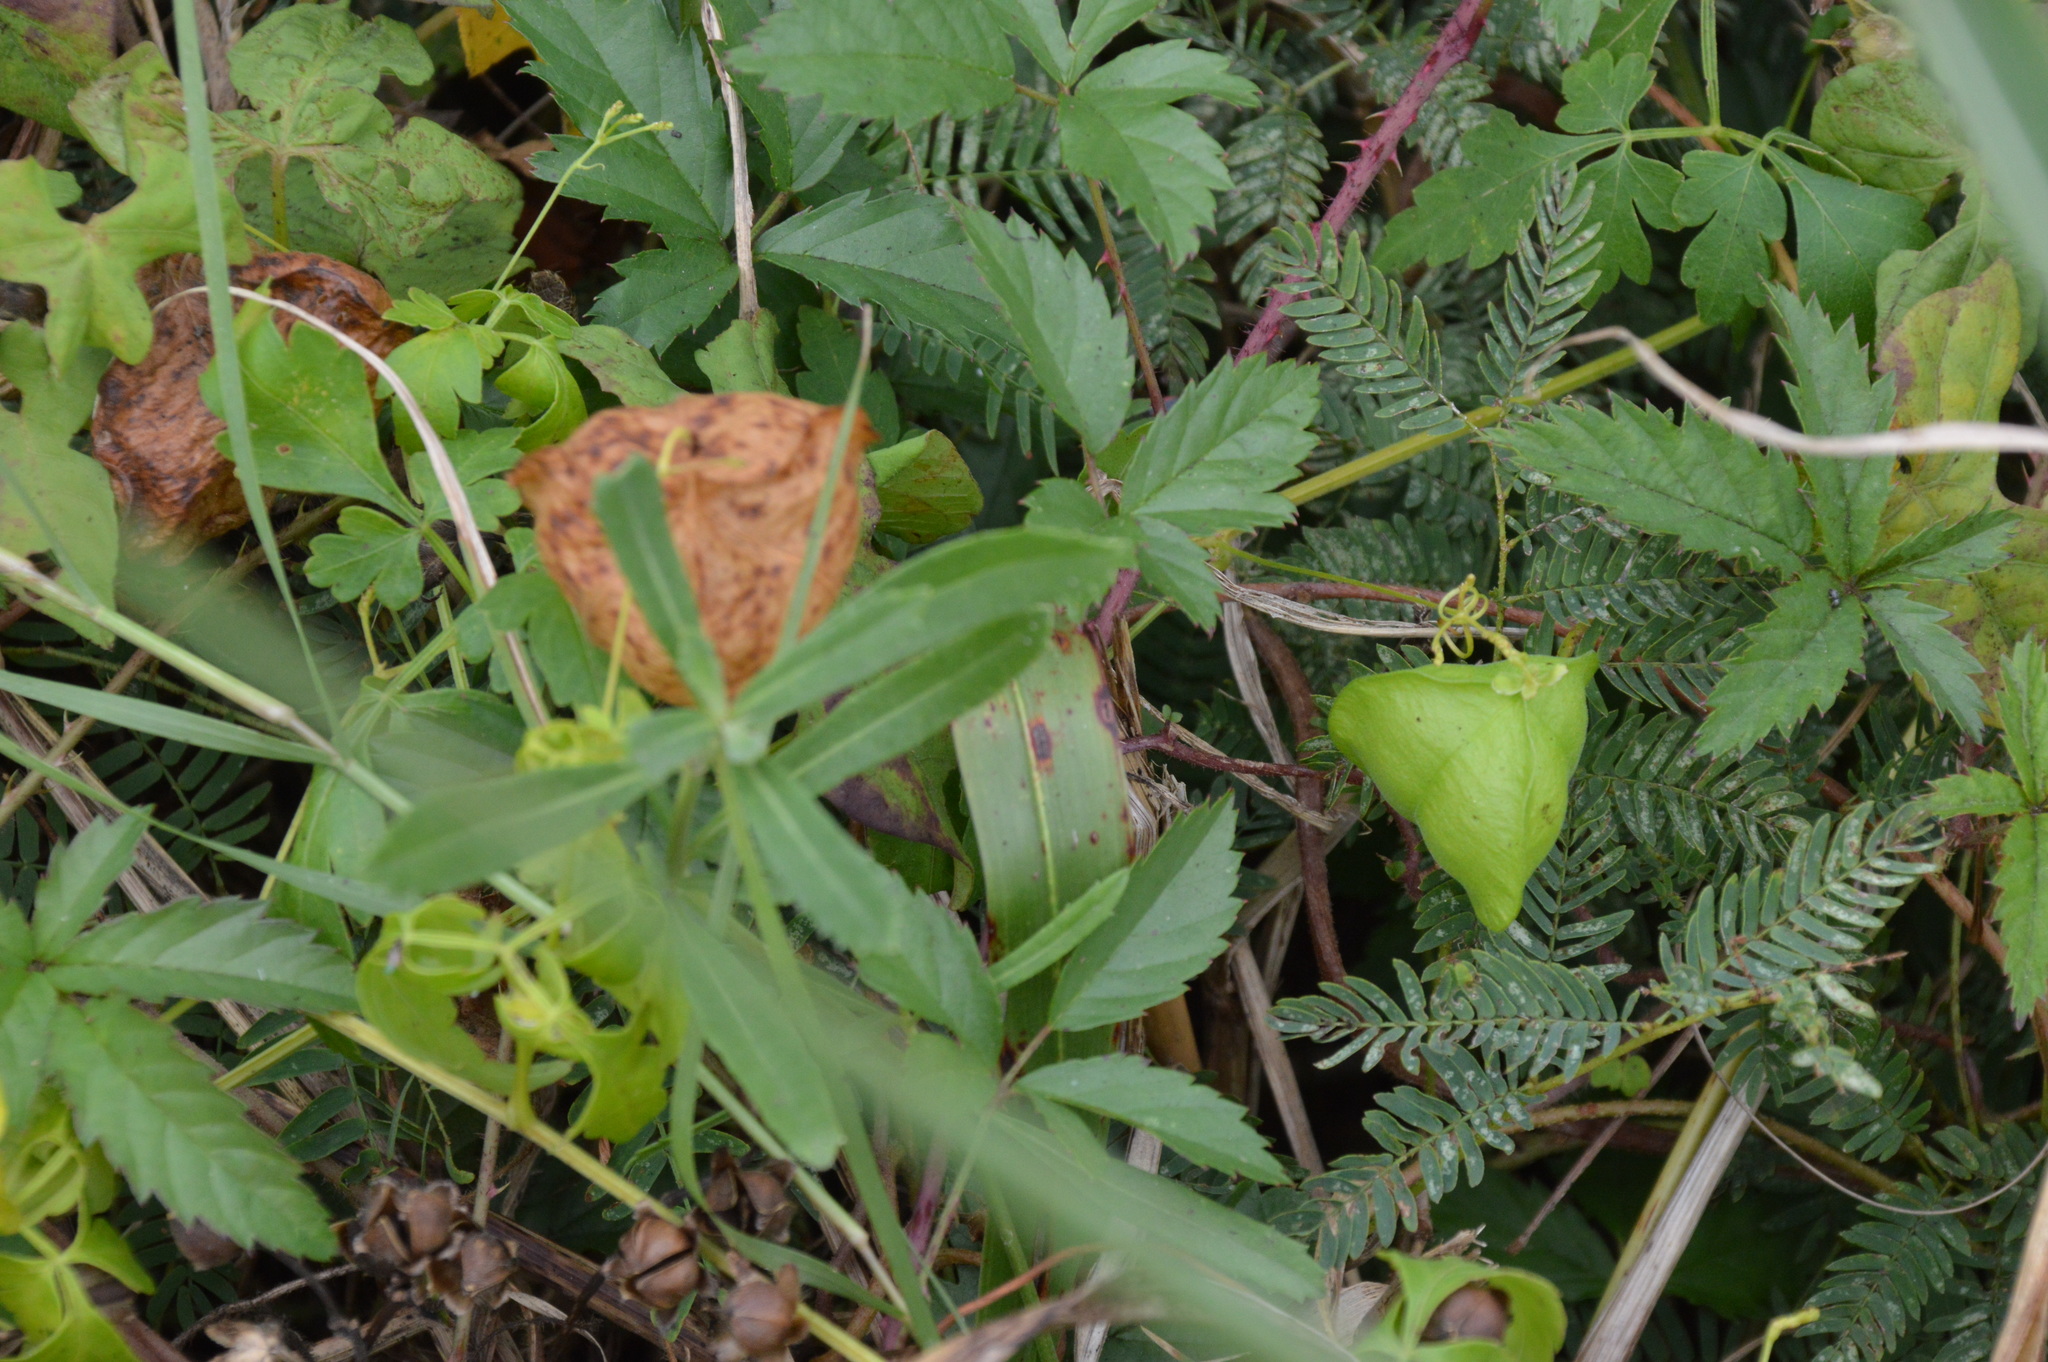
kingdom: Plantae
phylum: Tracheophyta
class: Magnoliopsida
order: Sapindales
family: Sapindaceae
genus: Cardiospermum
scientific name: Cardiospermum halicacabum
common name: Balloon vine
